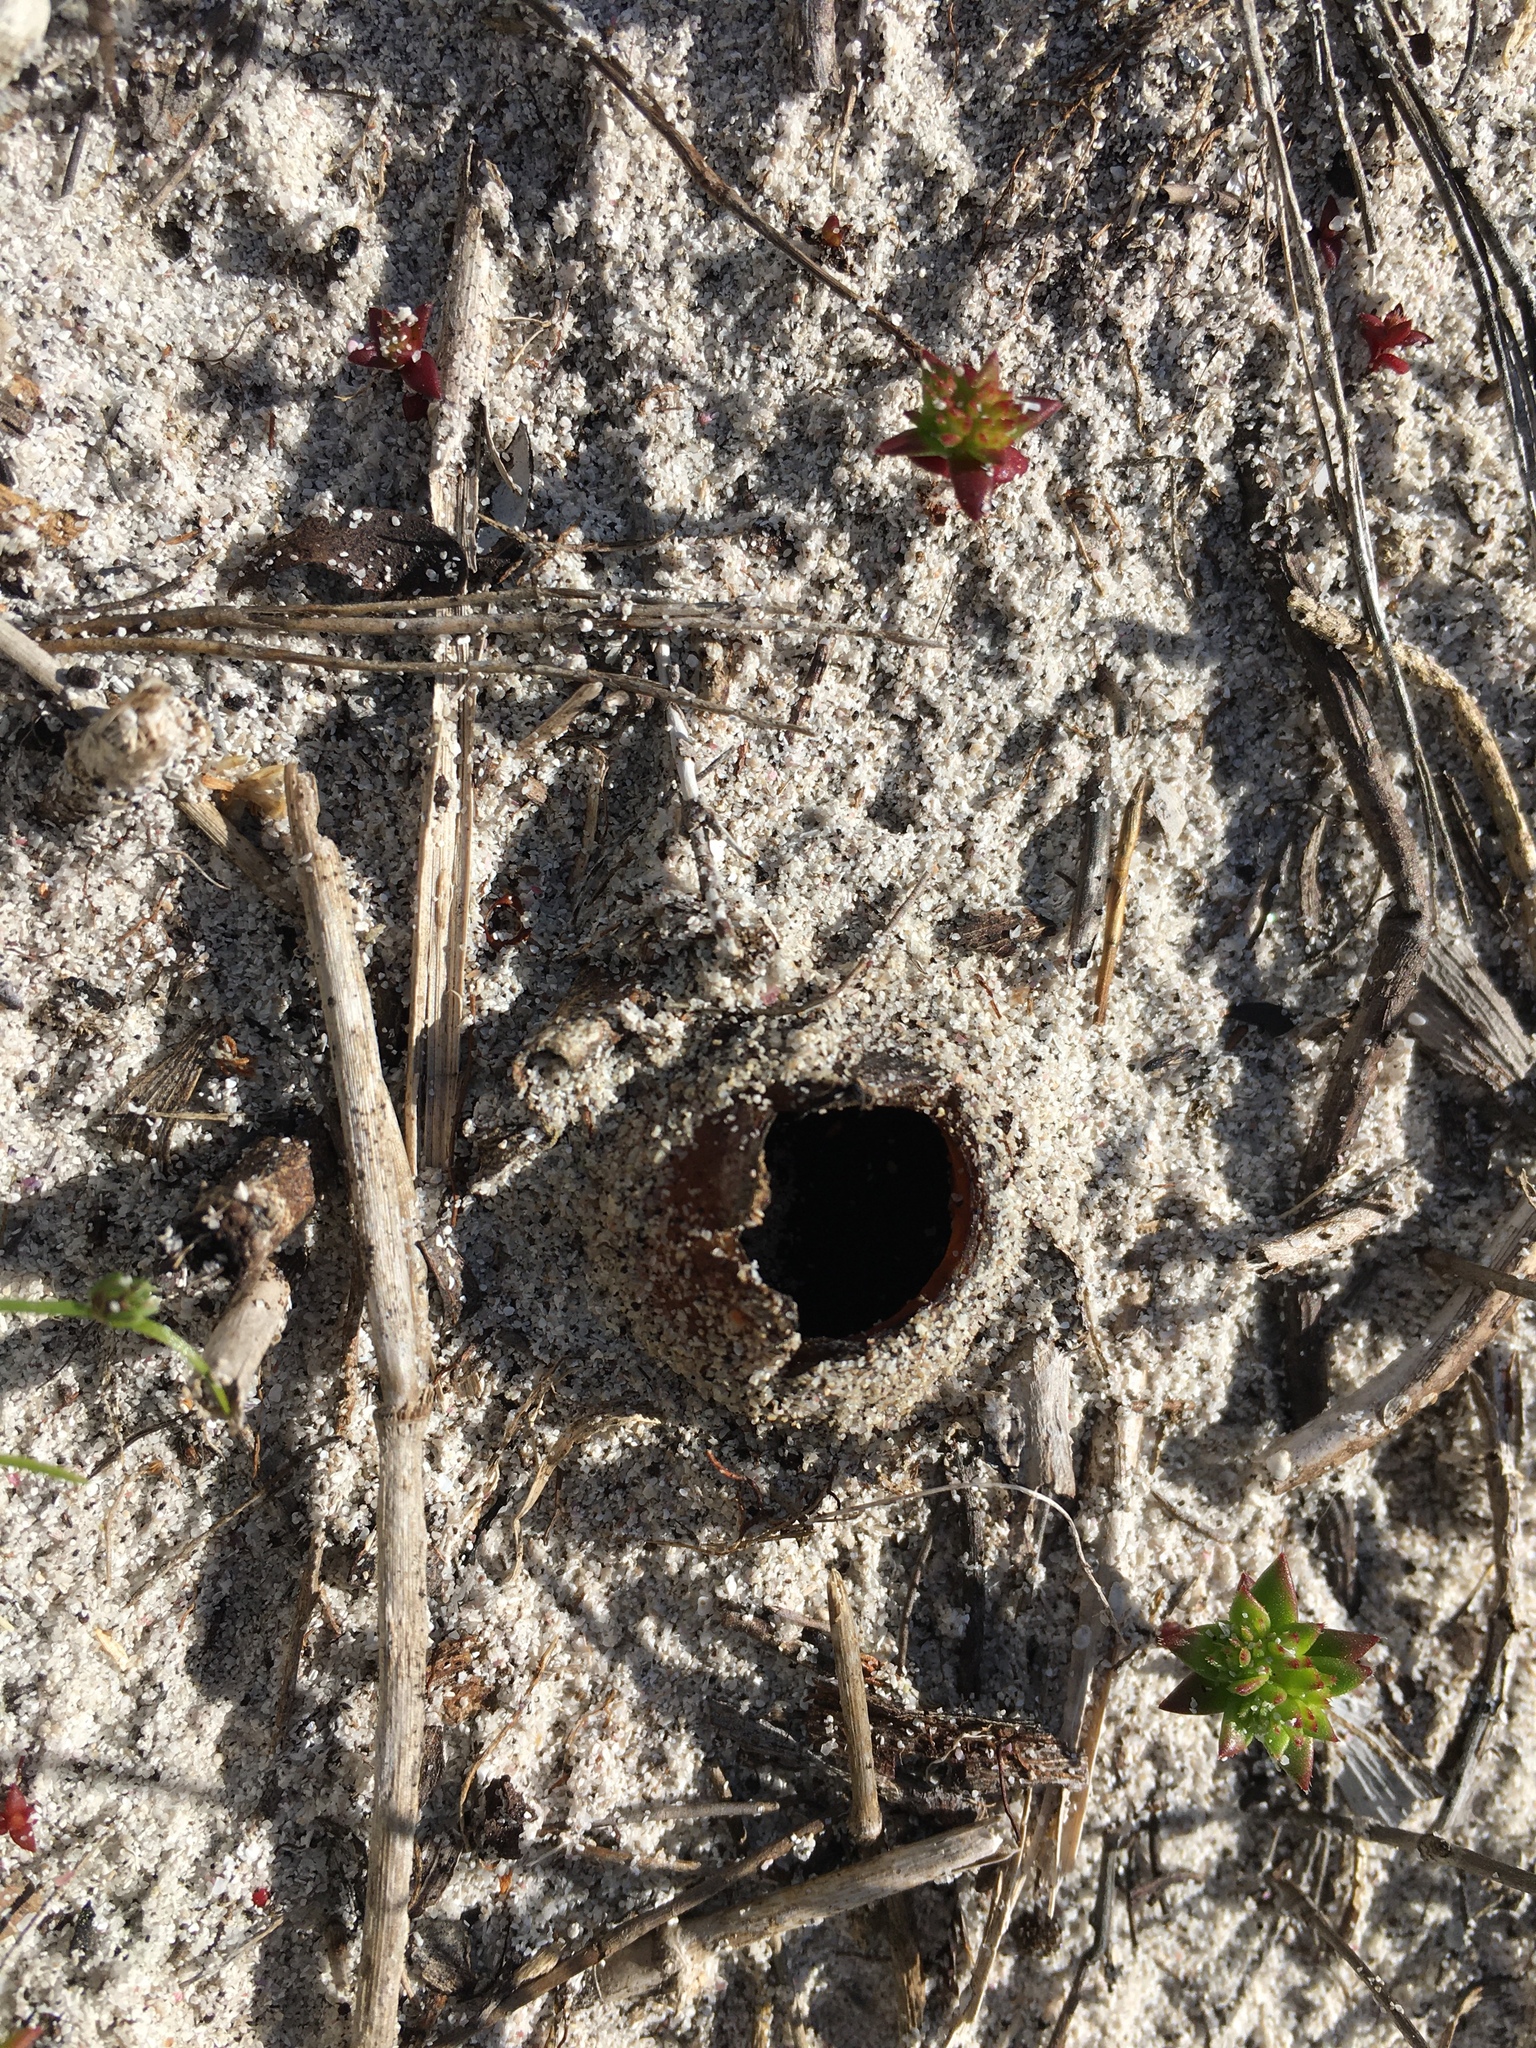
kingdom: Fungi
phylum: Ascomycota
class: Pezizomycetes
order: Pezizales
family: Pezizaceae
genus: Peziza
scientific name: Peziza ammophila
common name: Dune cup
